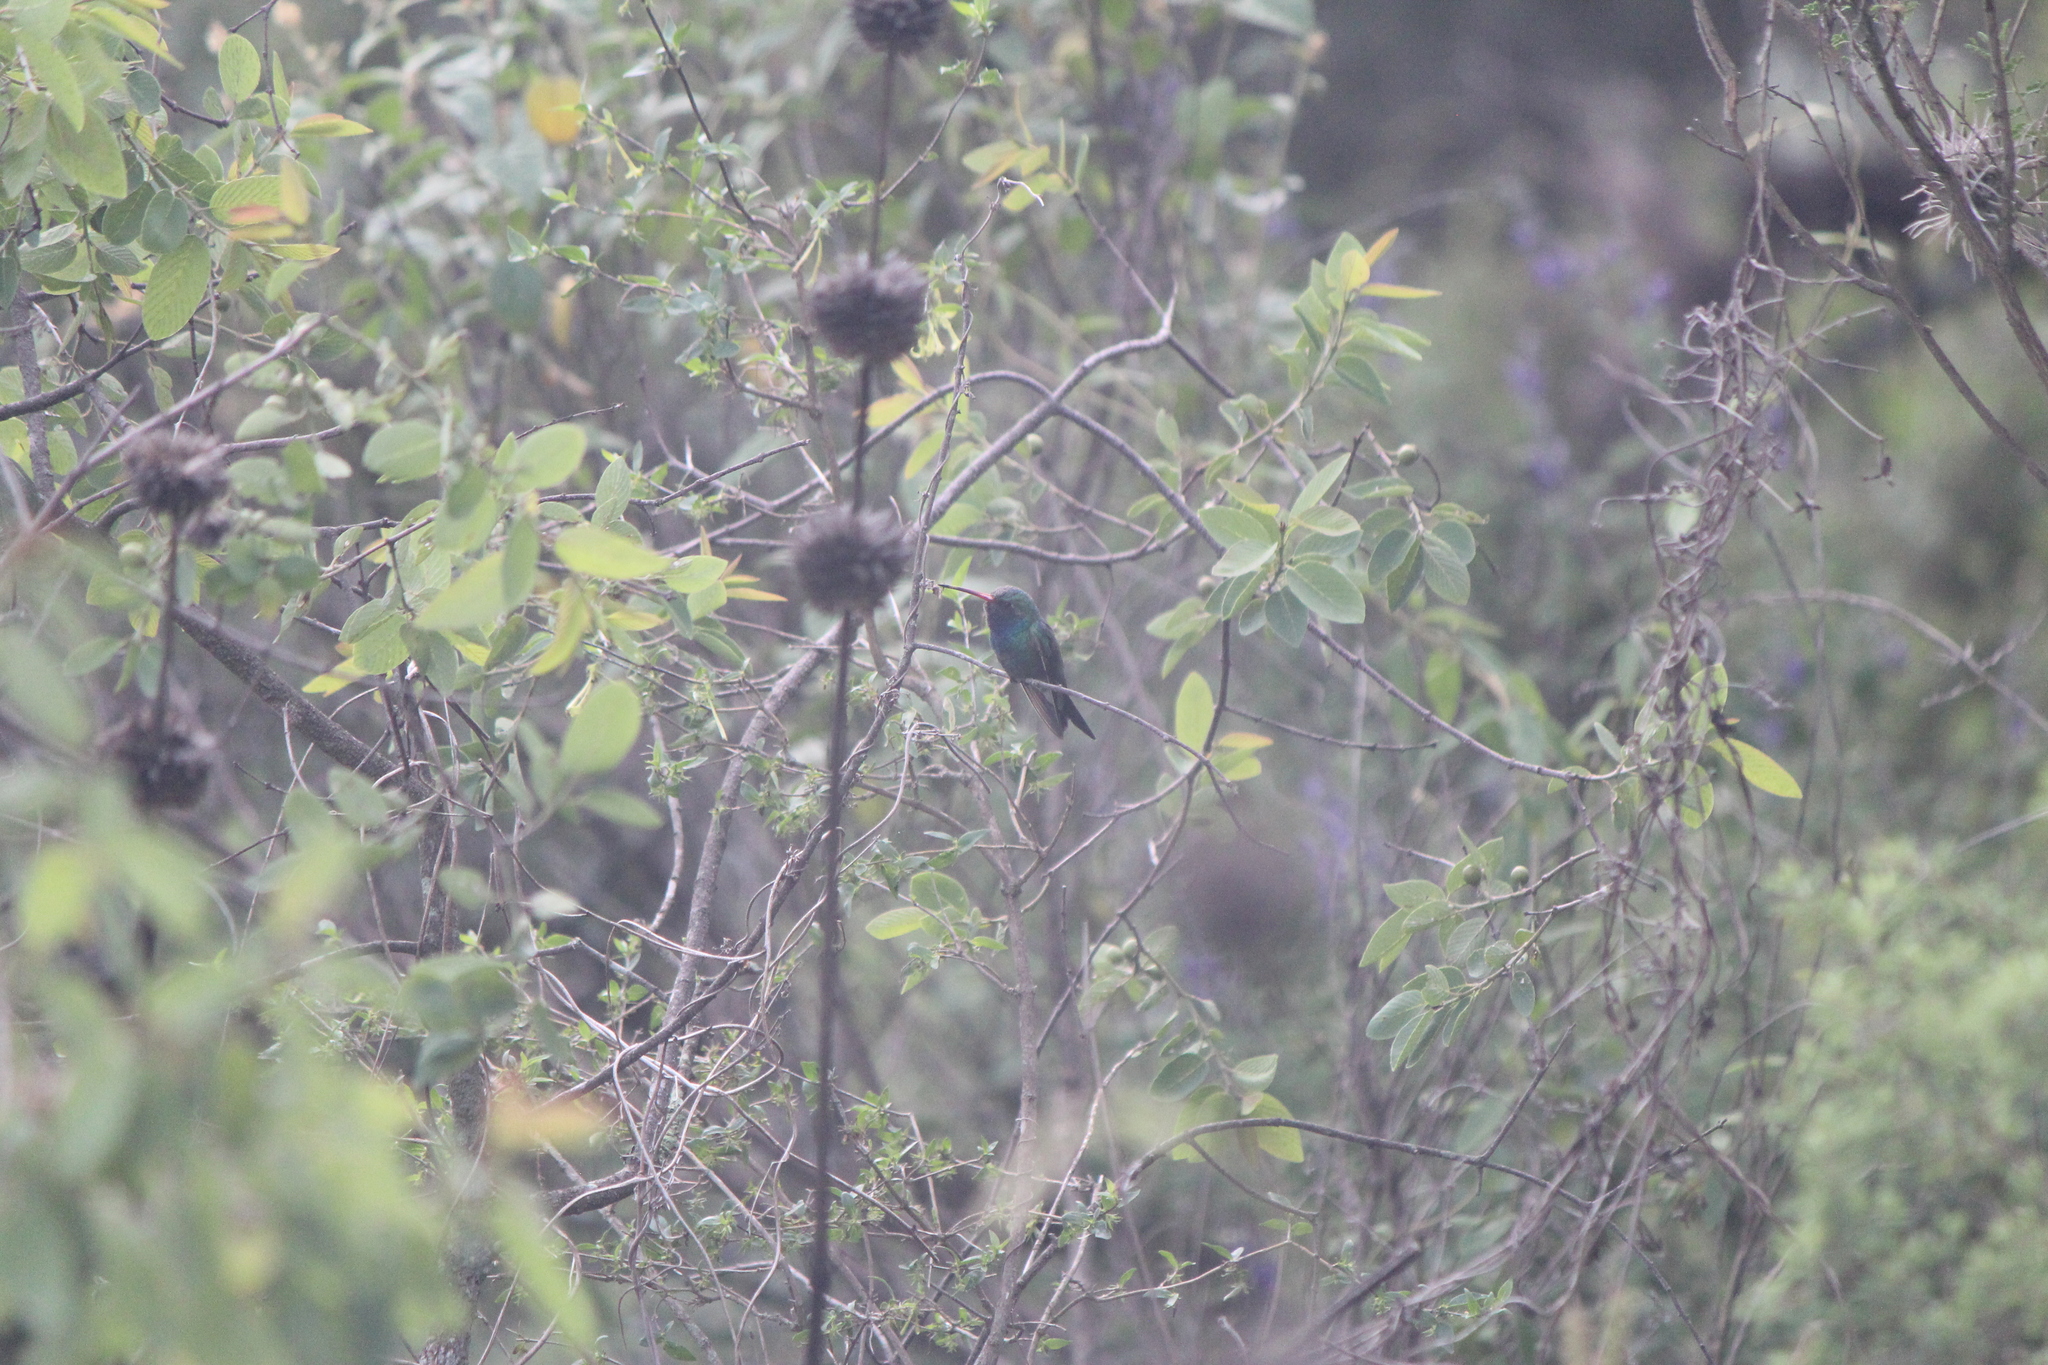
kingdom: Animalia
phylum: Chordata
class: Aves
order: Apodiformes
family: Trochilidae
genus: Cynanthus
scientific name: Cynanthus latirostris
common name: Broad-billed hummingbird
